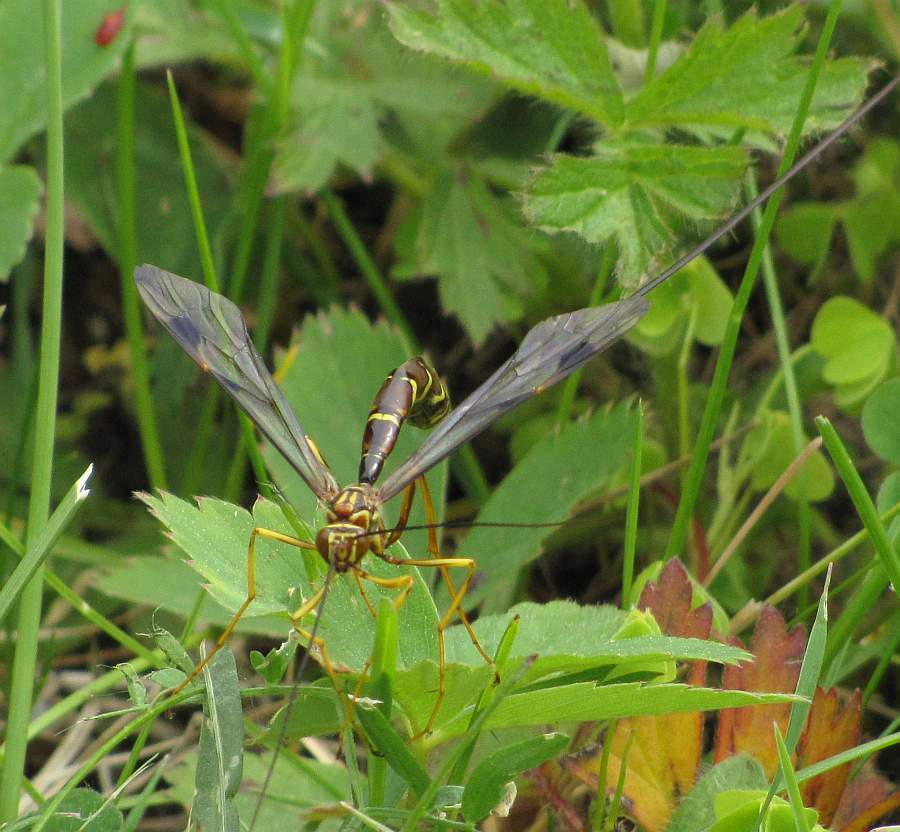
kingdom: Animalia
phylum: Arthropoda
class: Insecta
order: Hymenoptera
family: Ichneumonidae
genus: Megarhyssa
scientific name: Megarhyssa macrura
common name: Long-tailed giant ichneumonid wasp
